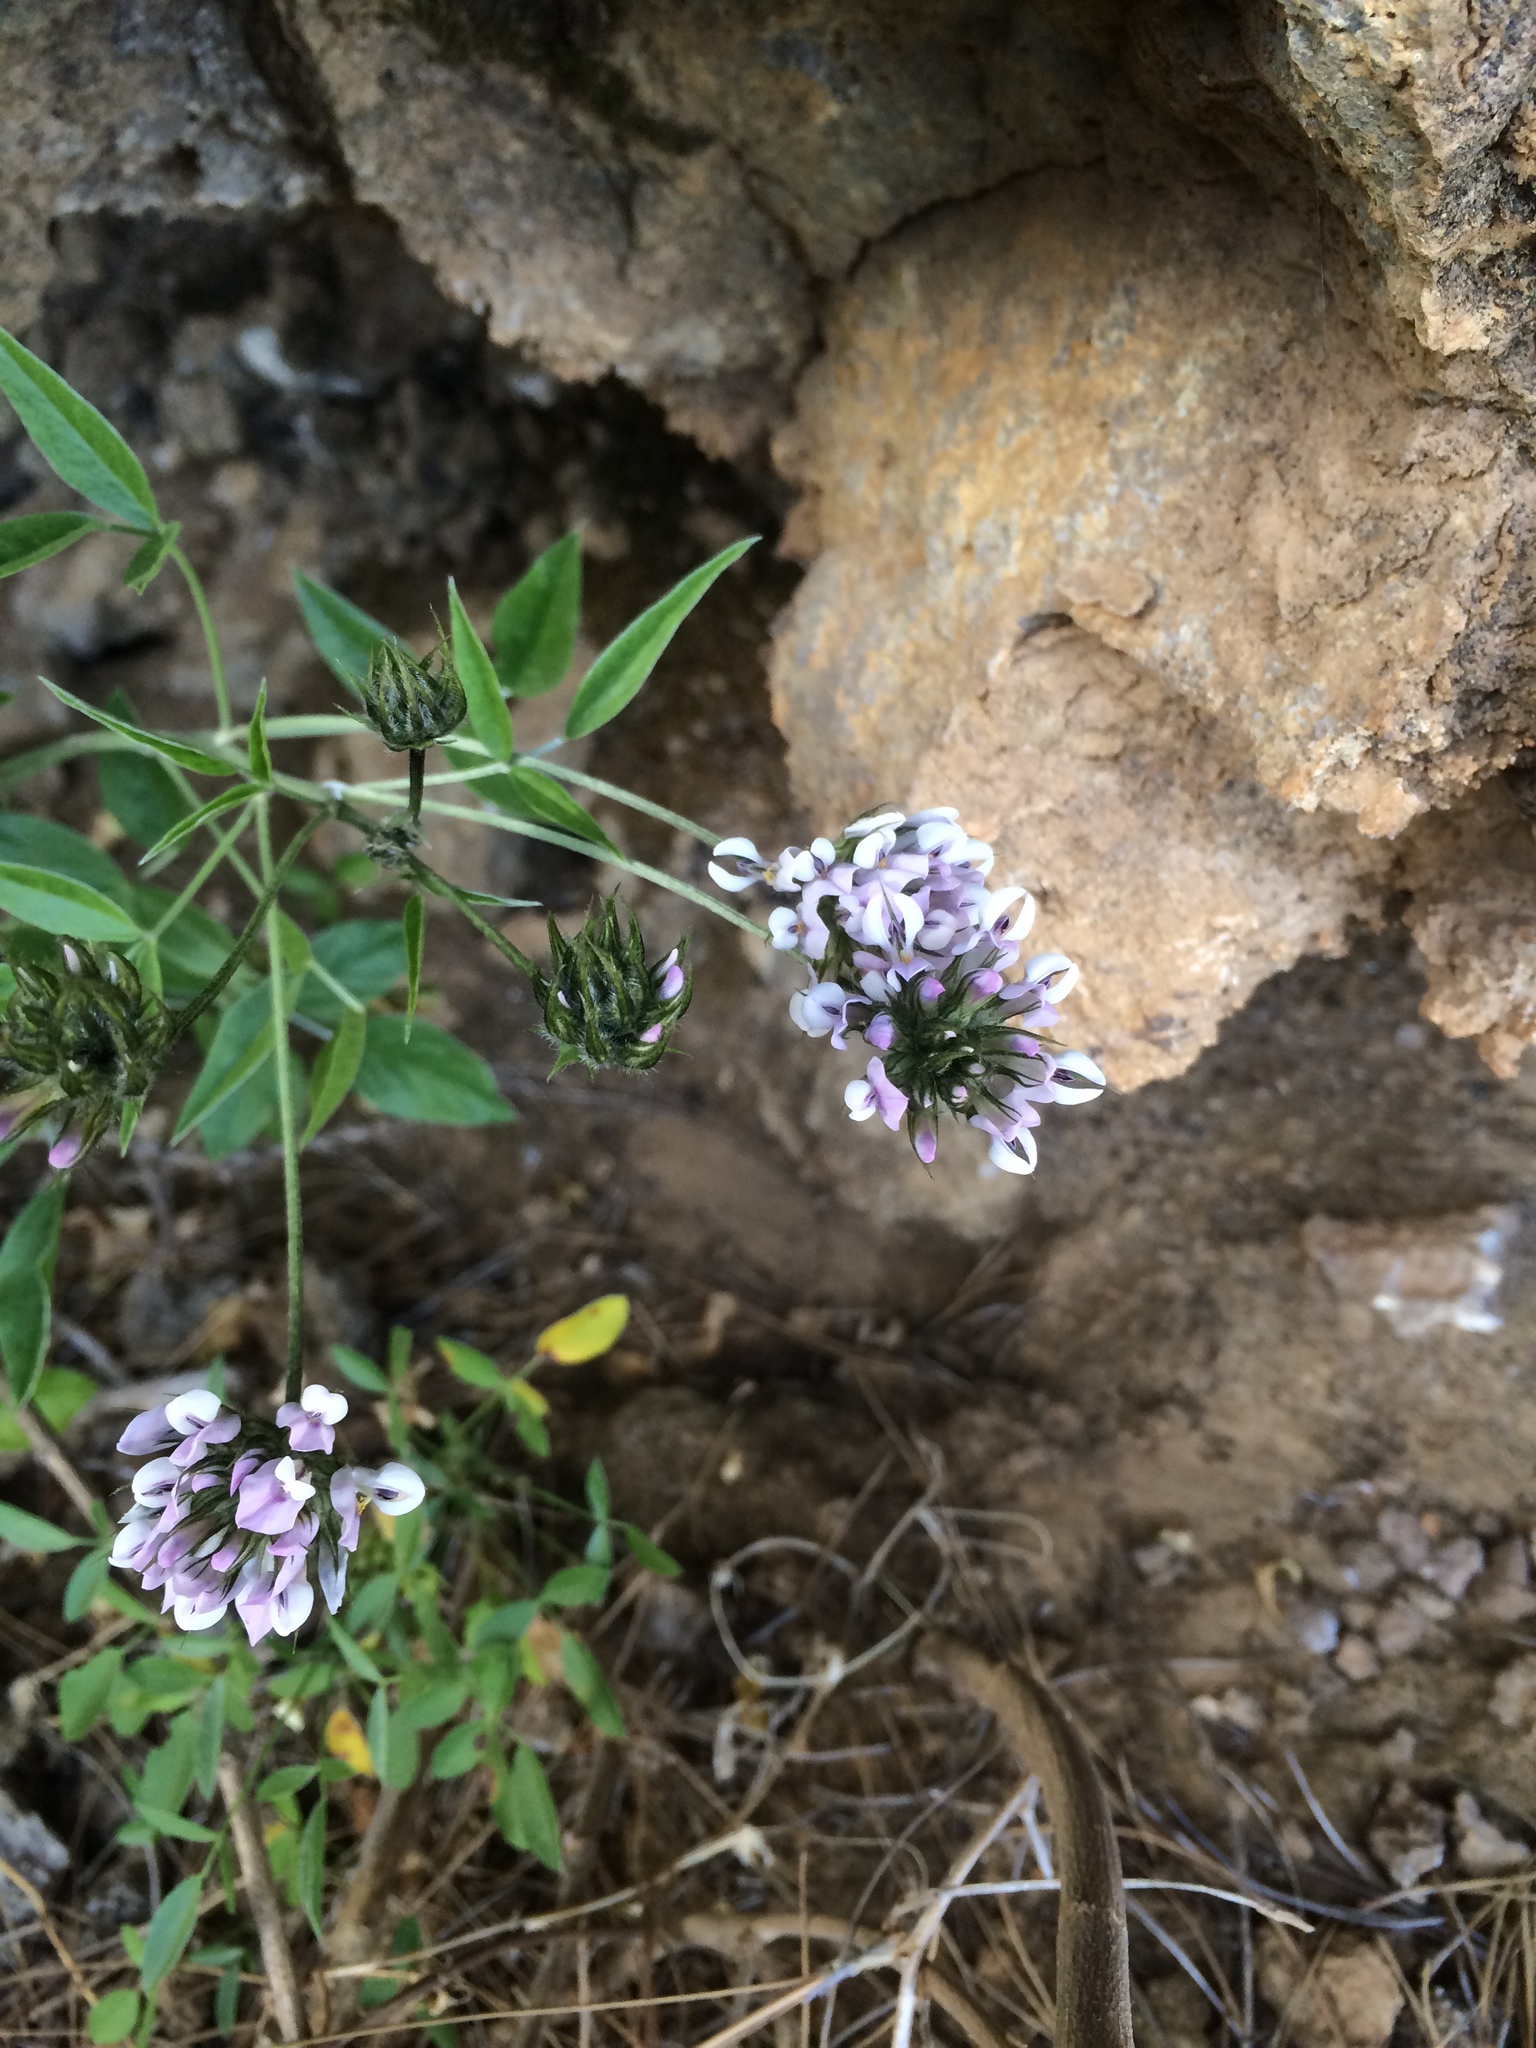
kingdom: Plantae
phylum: Tracheophyta
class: Magnoliopsida
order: Fabales
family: Fabaceae
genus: Bituminaria
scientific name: Bituminaria bituminosa
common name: Arabian pea
